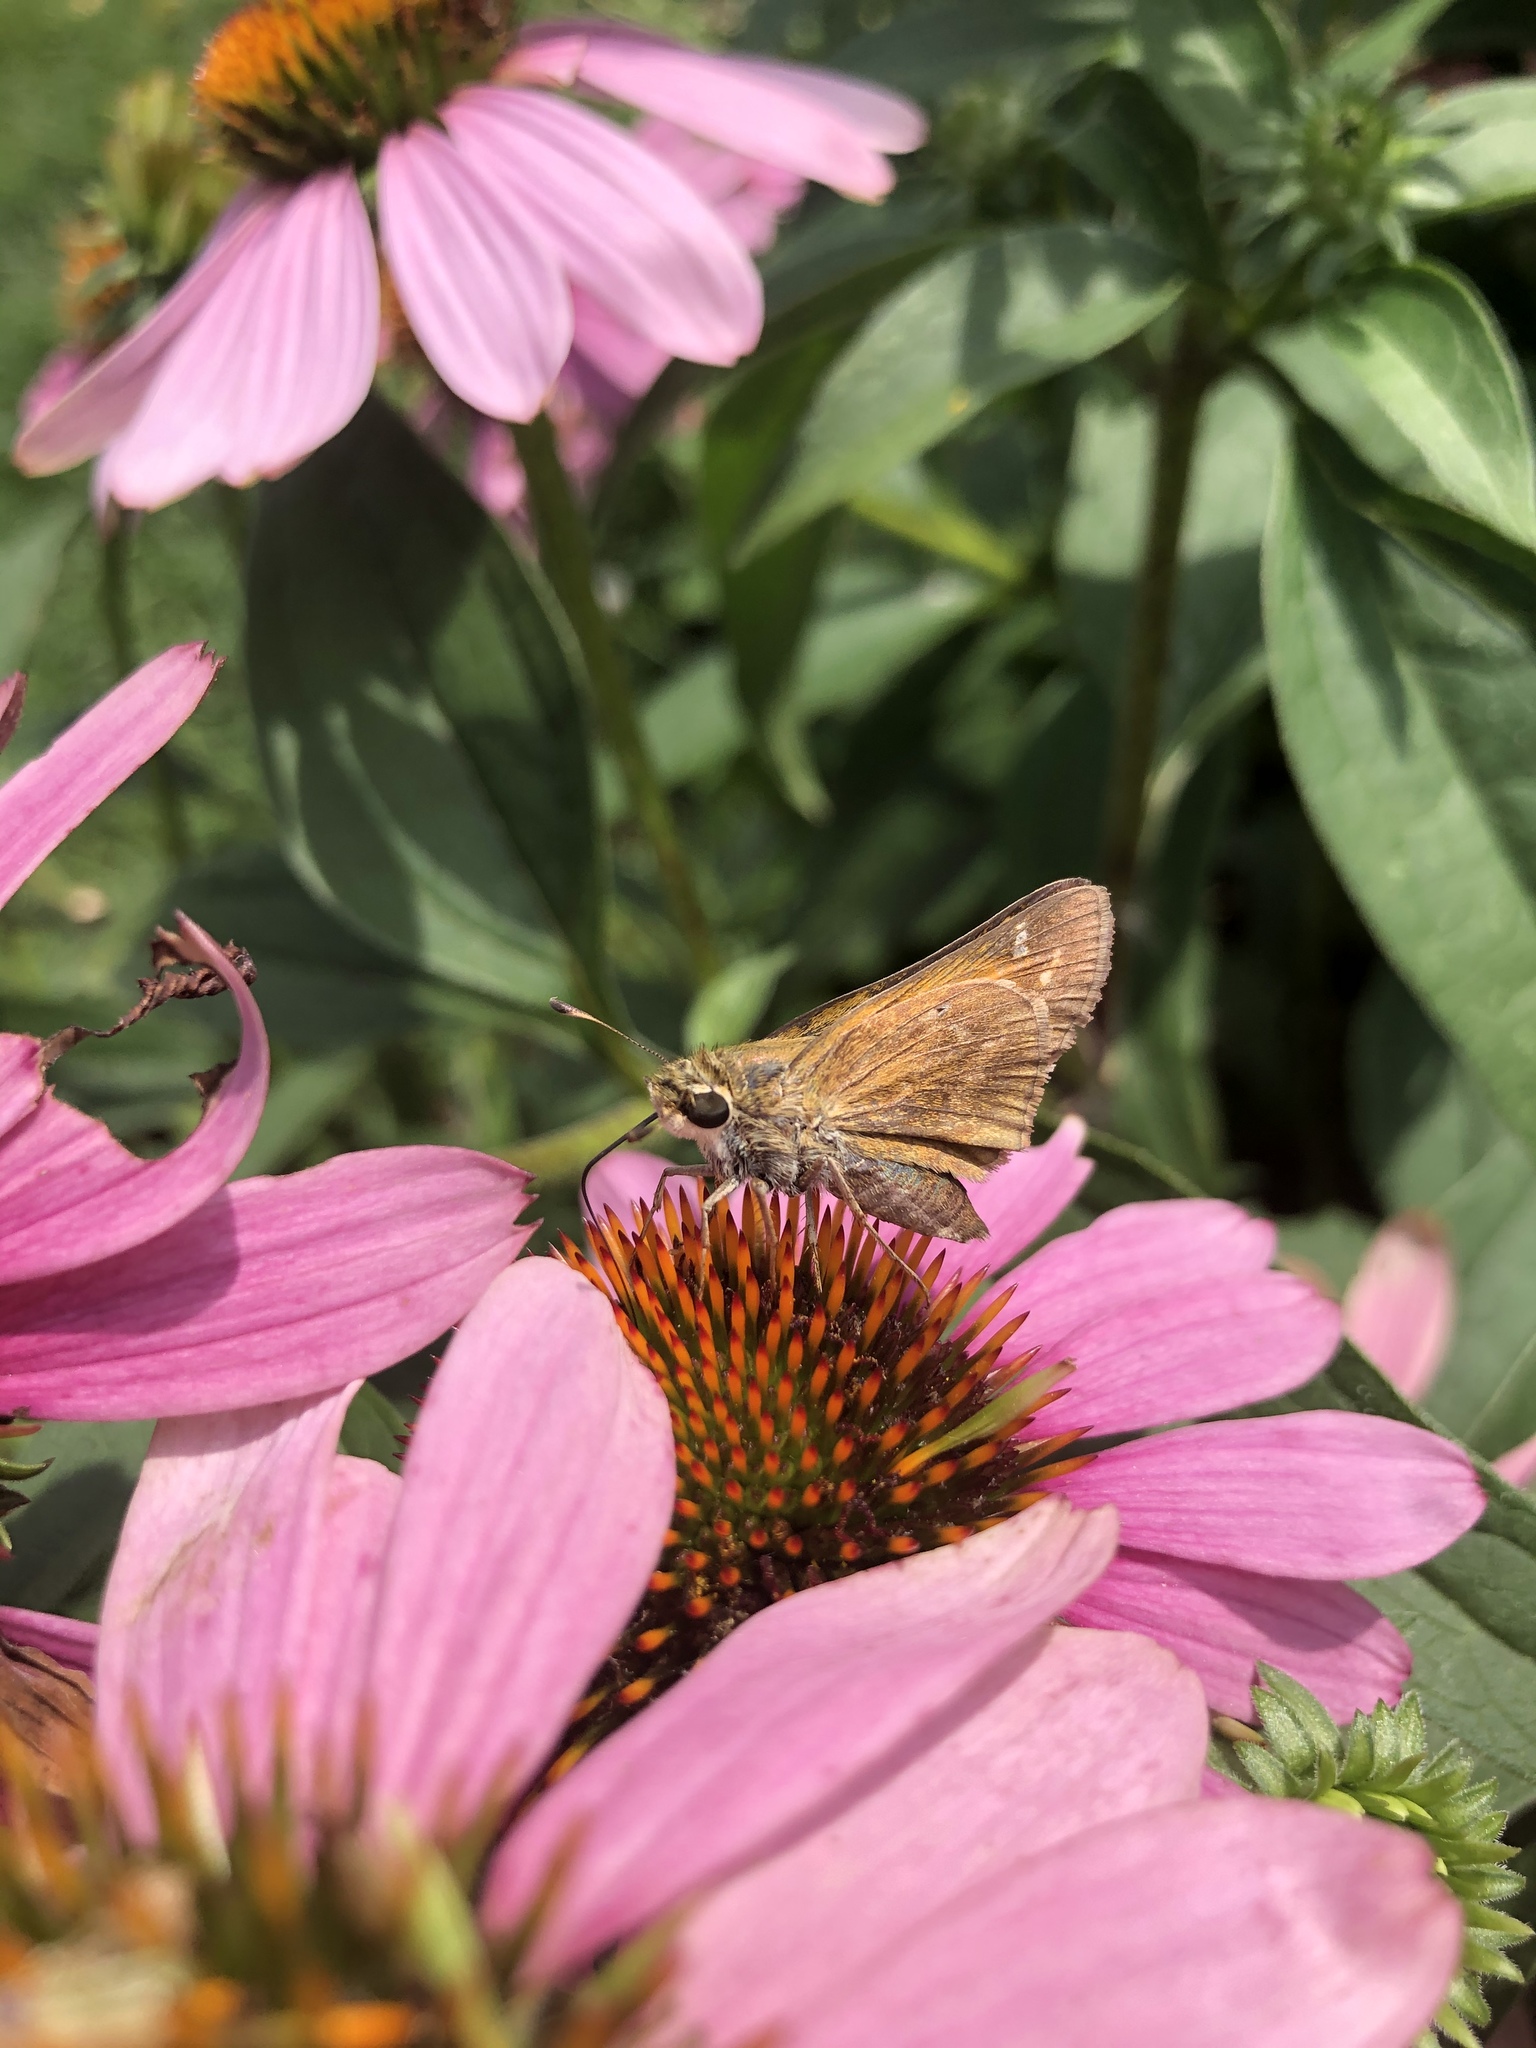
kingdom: Animalia
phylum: Arthropoda
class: Insecta
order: Lepidoptera
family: Hesperiidae
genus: Atalopedes
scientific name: Atalopedes
